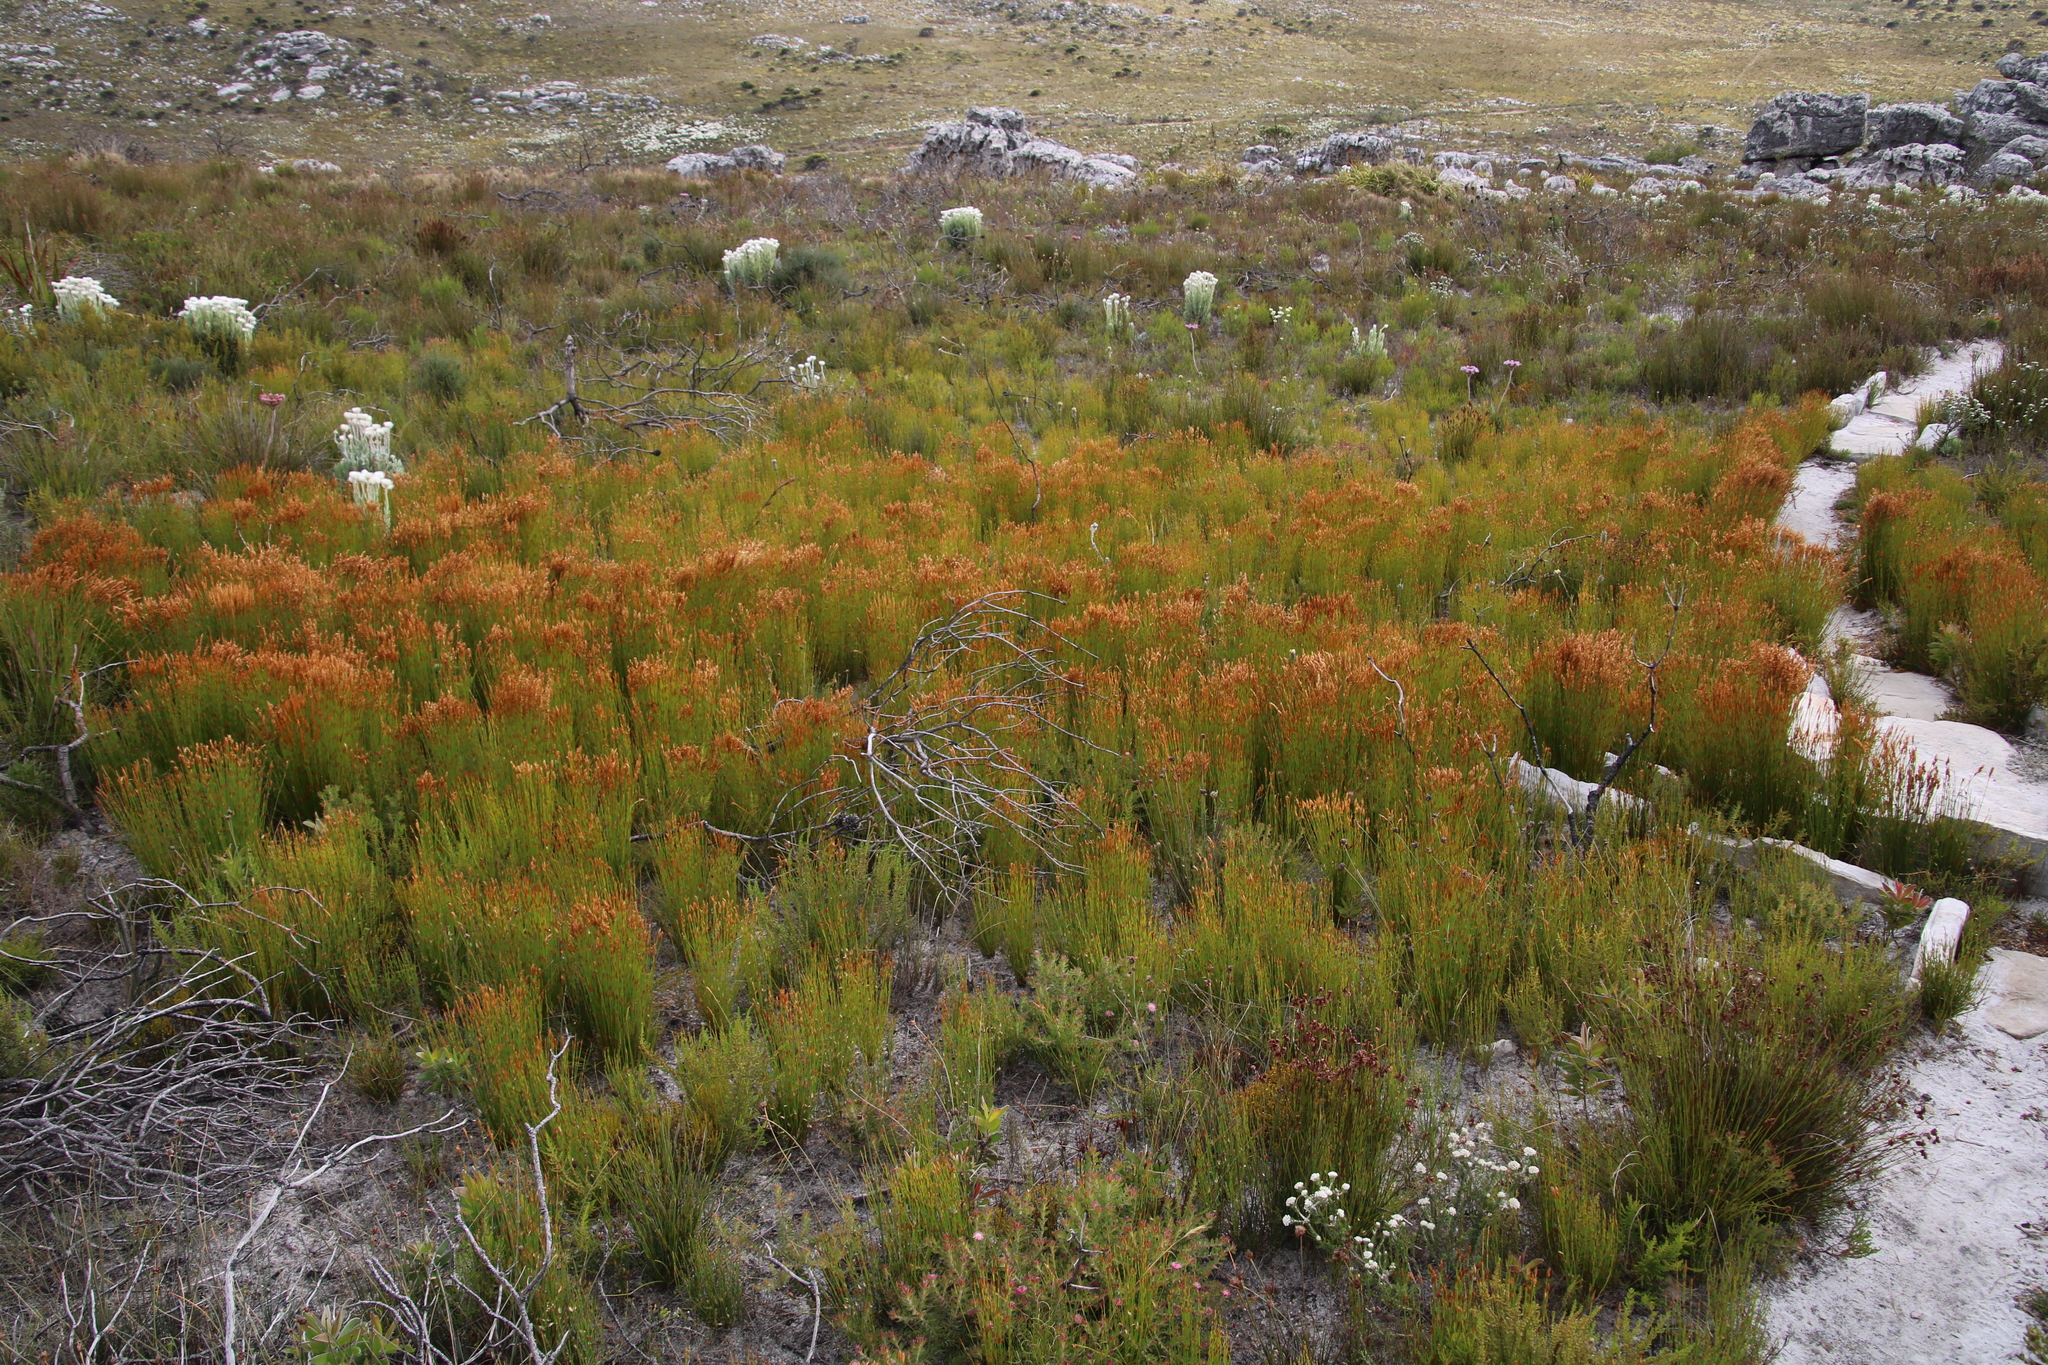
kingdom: Plantae
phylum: Tracheophyta
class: Liliopsida
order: Poales
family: Restionaceae
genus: Elegia
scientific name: Elegia filacea
